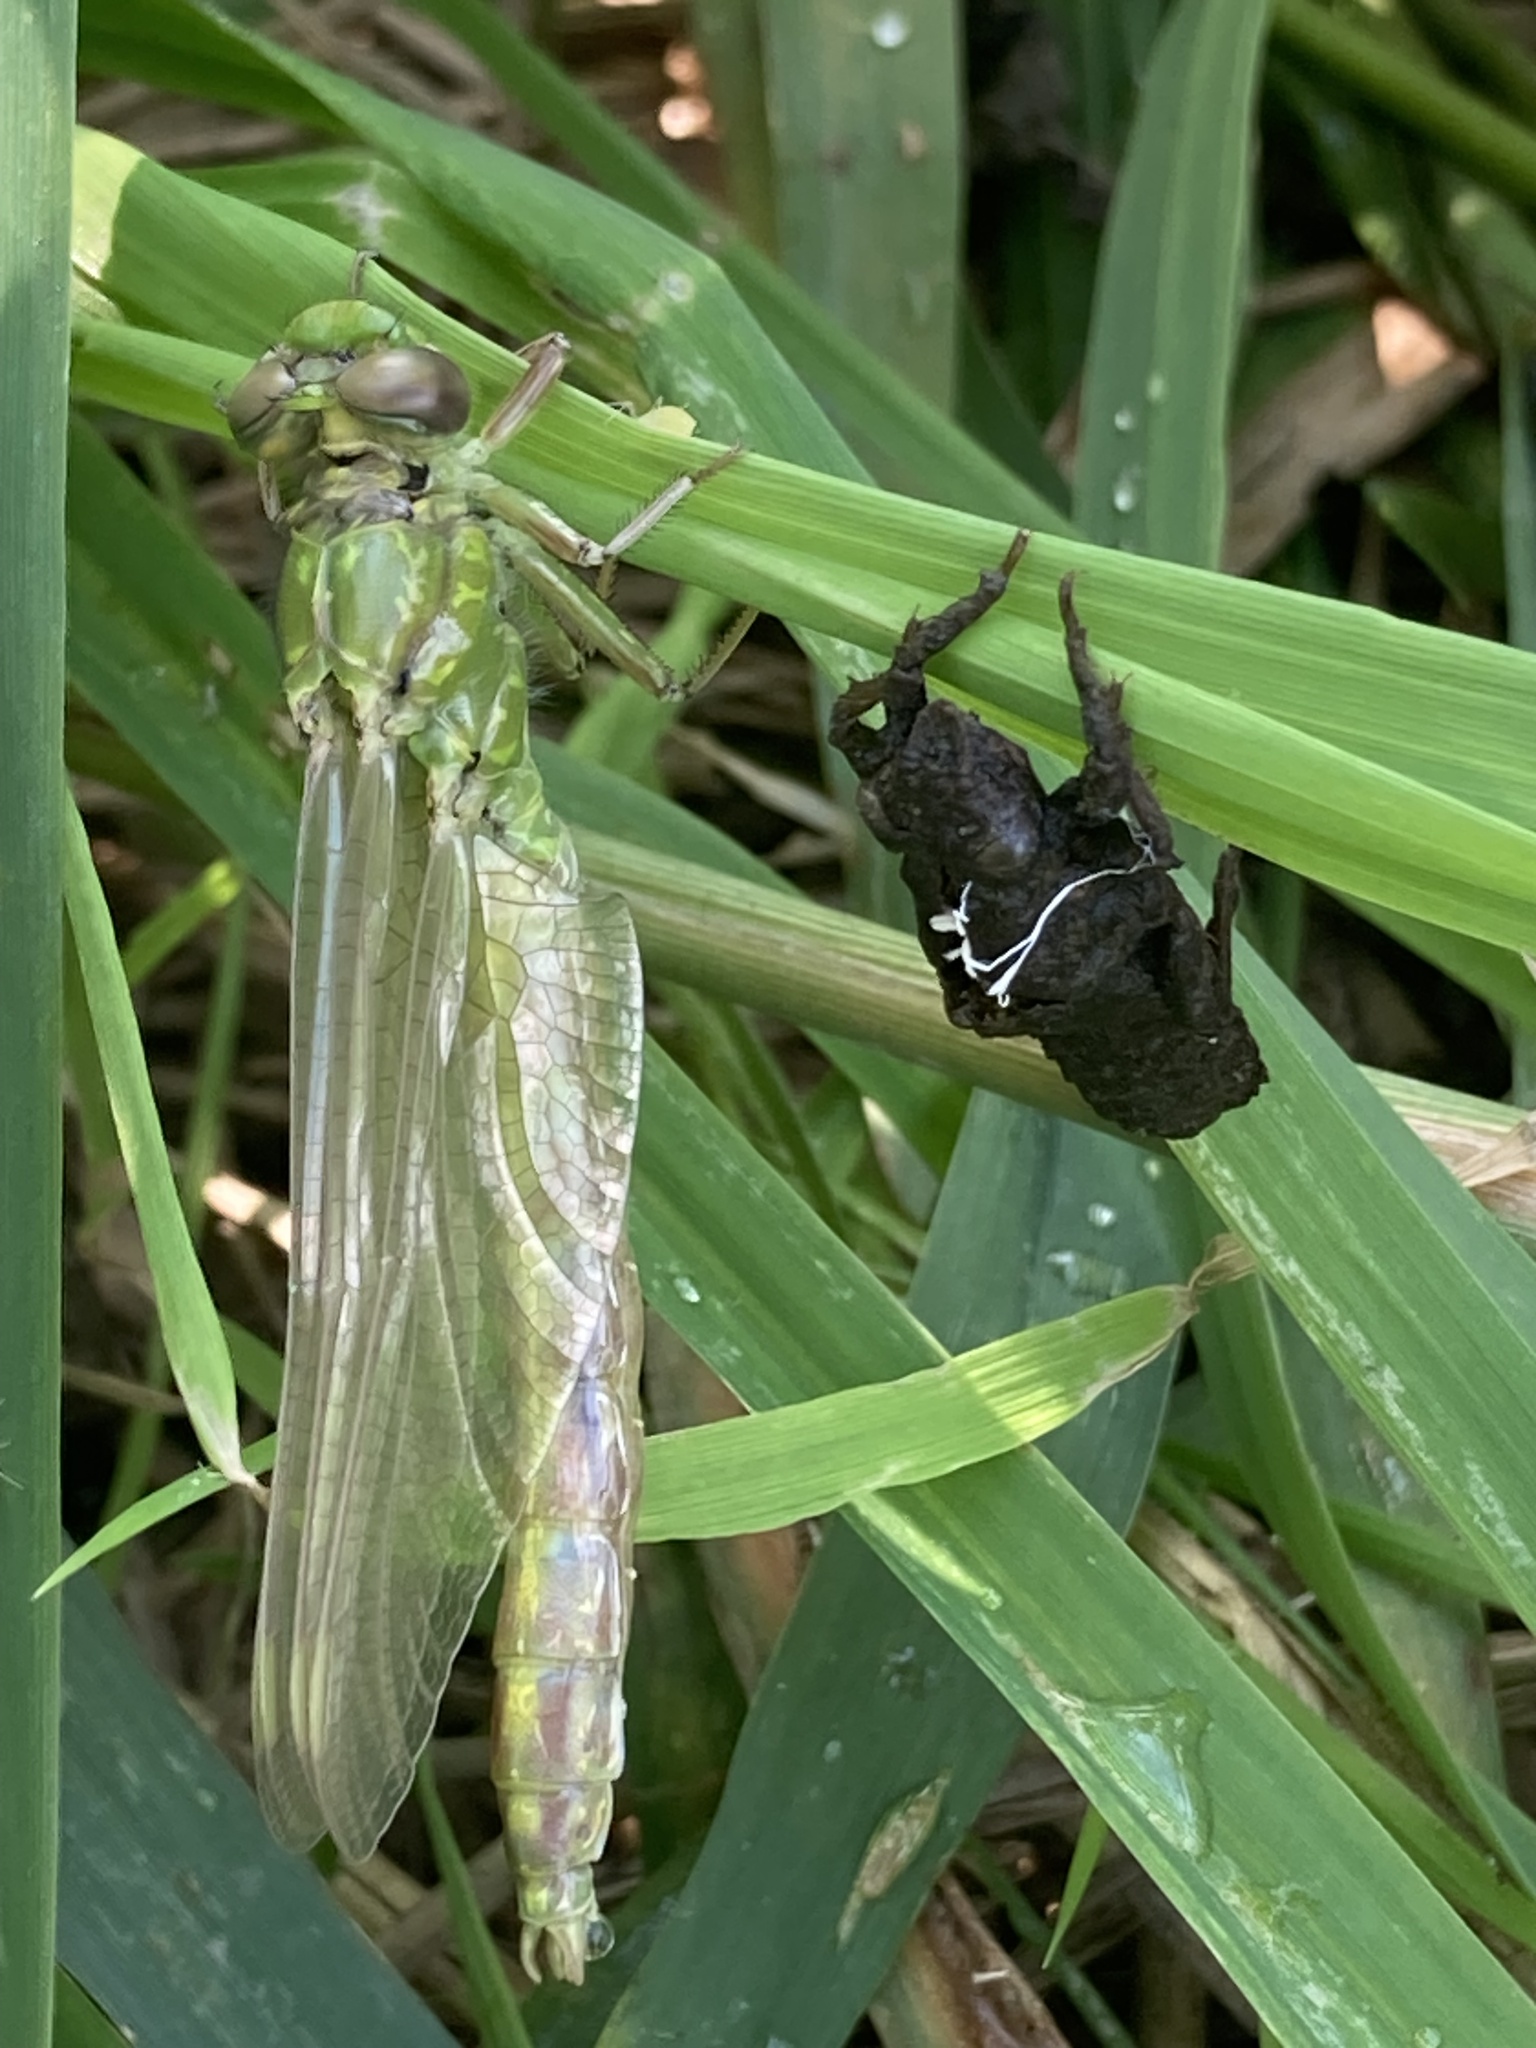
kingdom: Animalia
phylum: Arthropoda
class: Insecta
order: Odonata
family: Gomphidae
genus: Ophiogomphus
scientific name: Ophiogomphus cecilia
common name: Green snaketail
